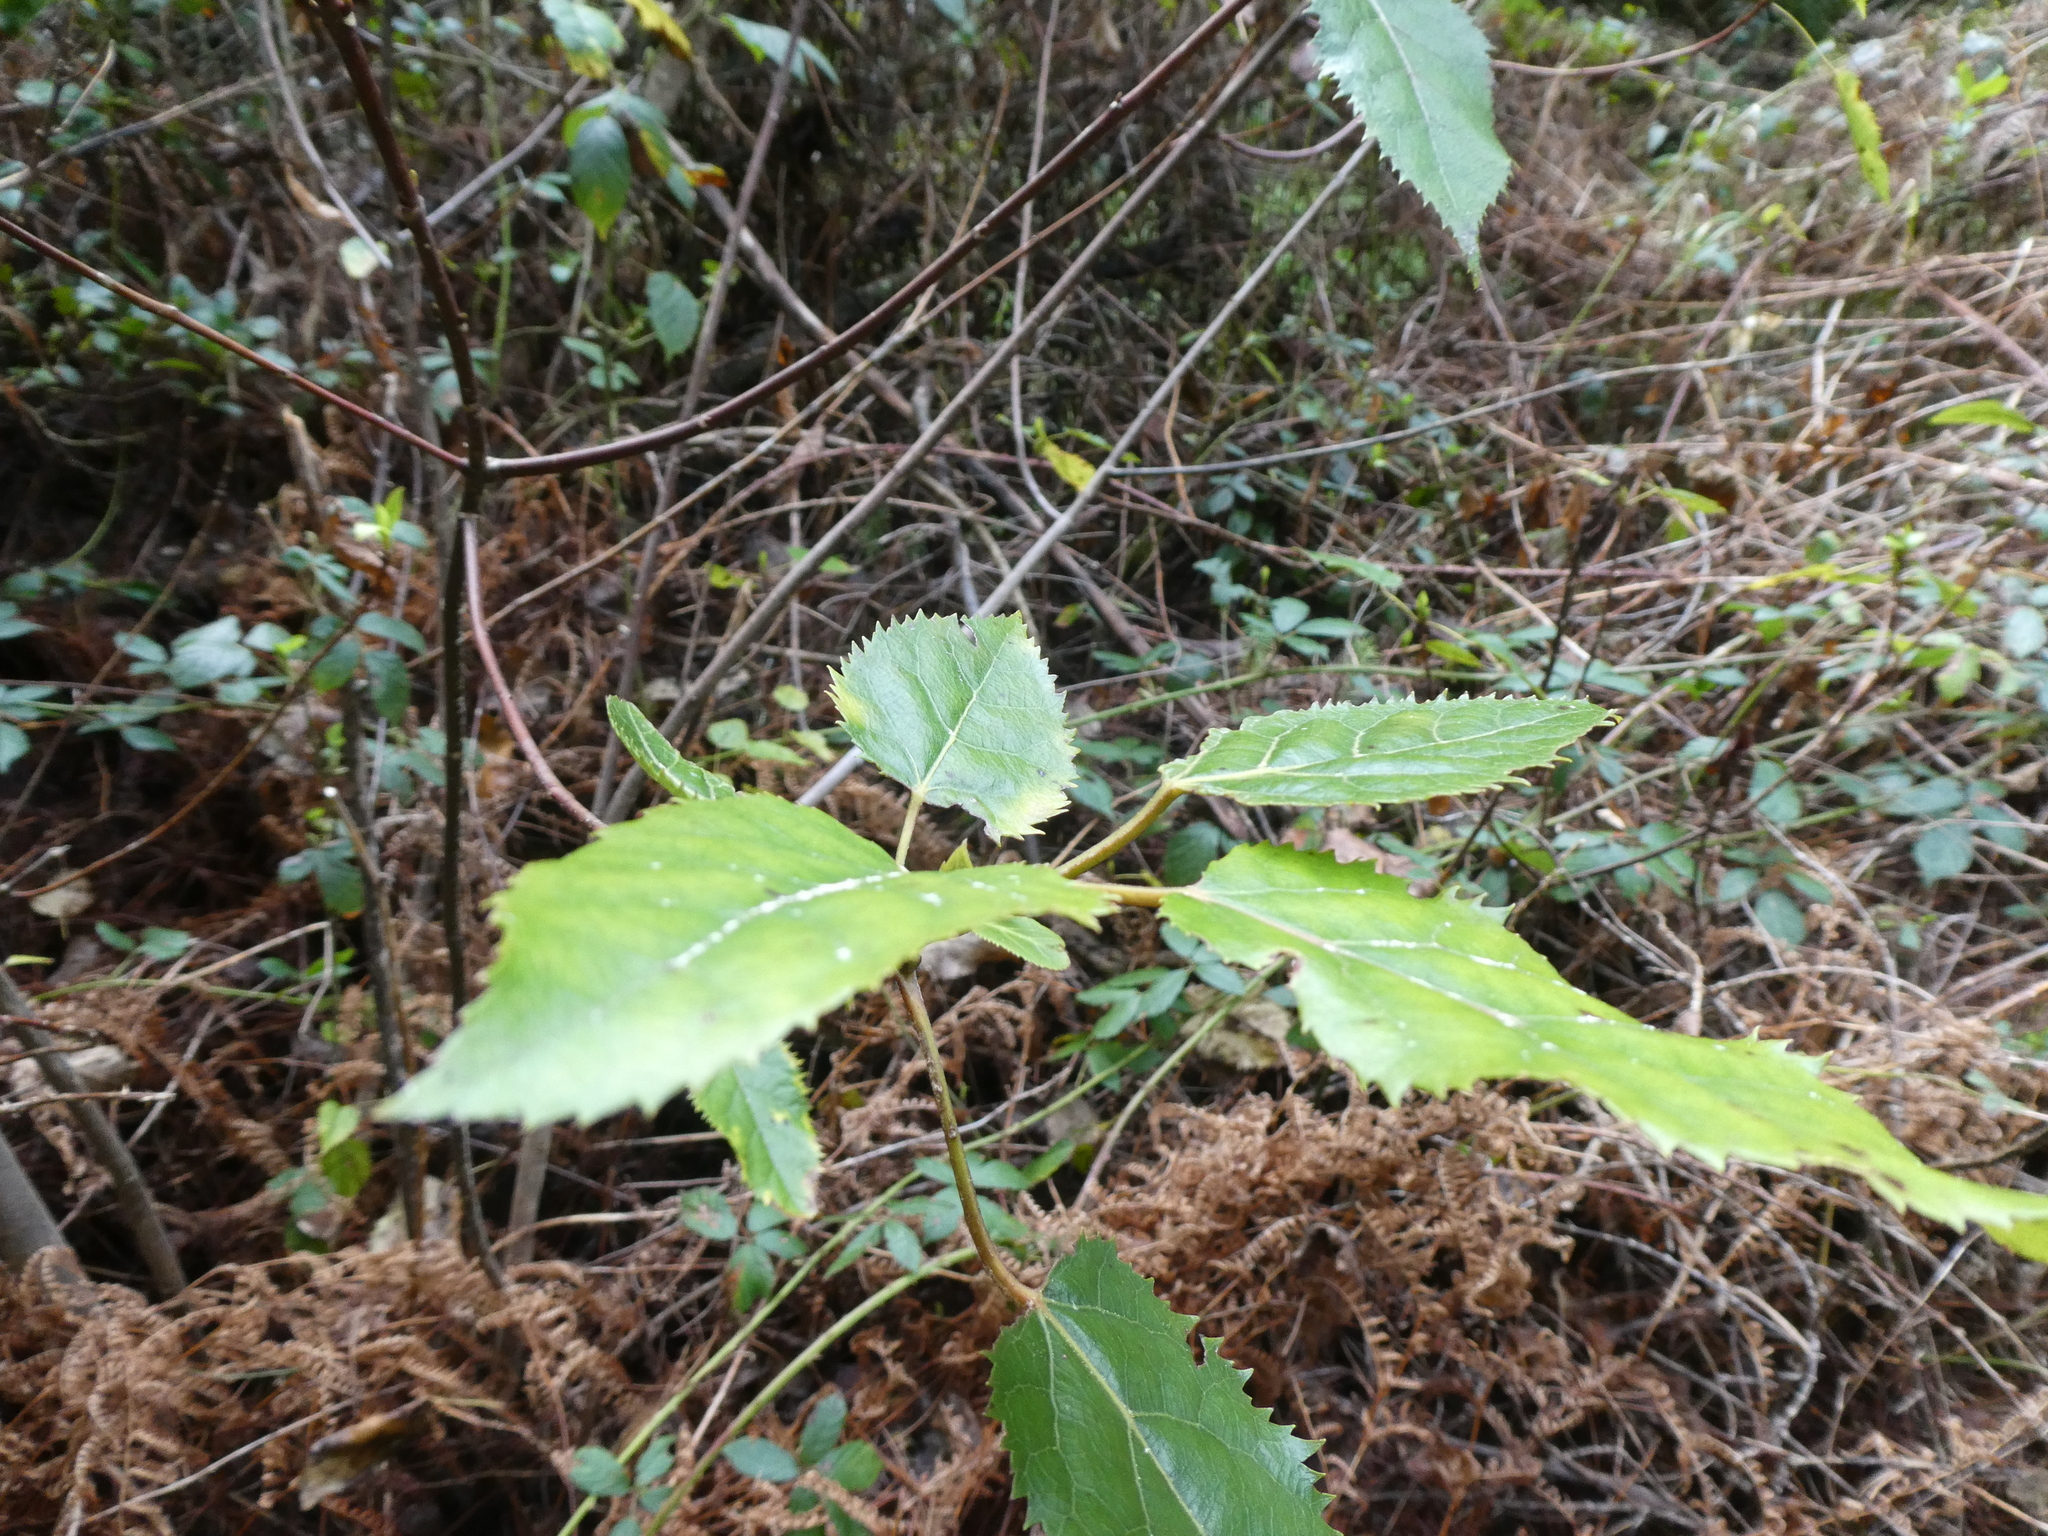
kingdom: Plantae
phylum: Tracheophyta
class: Magnoliopsida
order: Oxalidales
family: Elaeocarpaceae
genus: Aristotelia
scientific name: Aristotelia serrata
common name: New zealand wineberry
